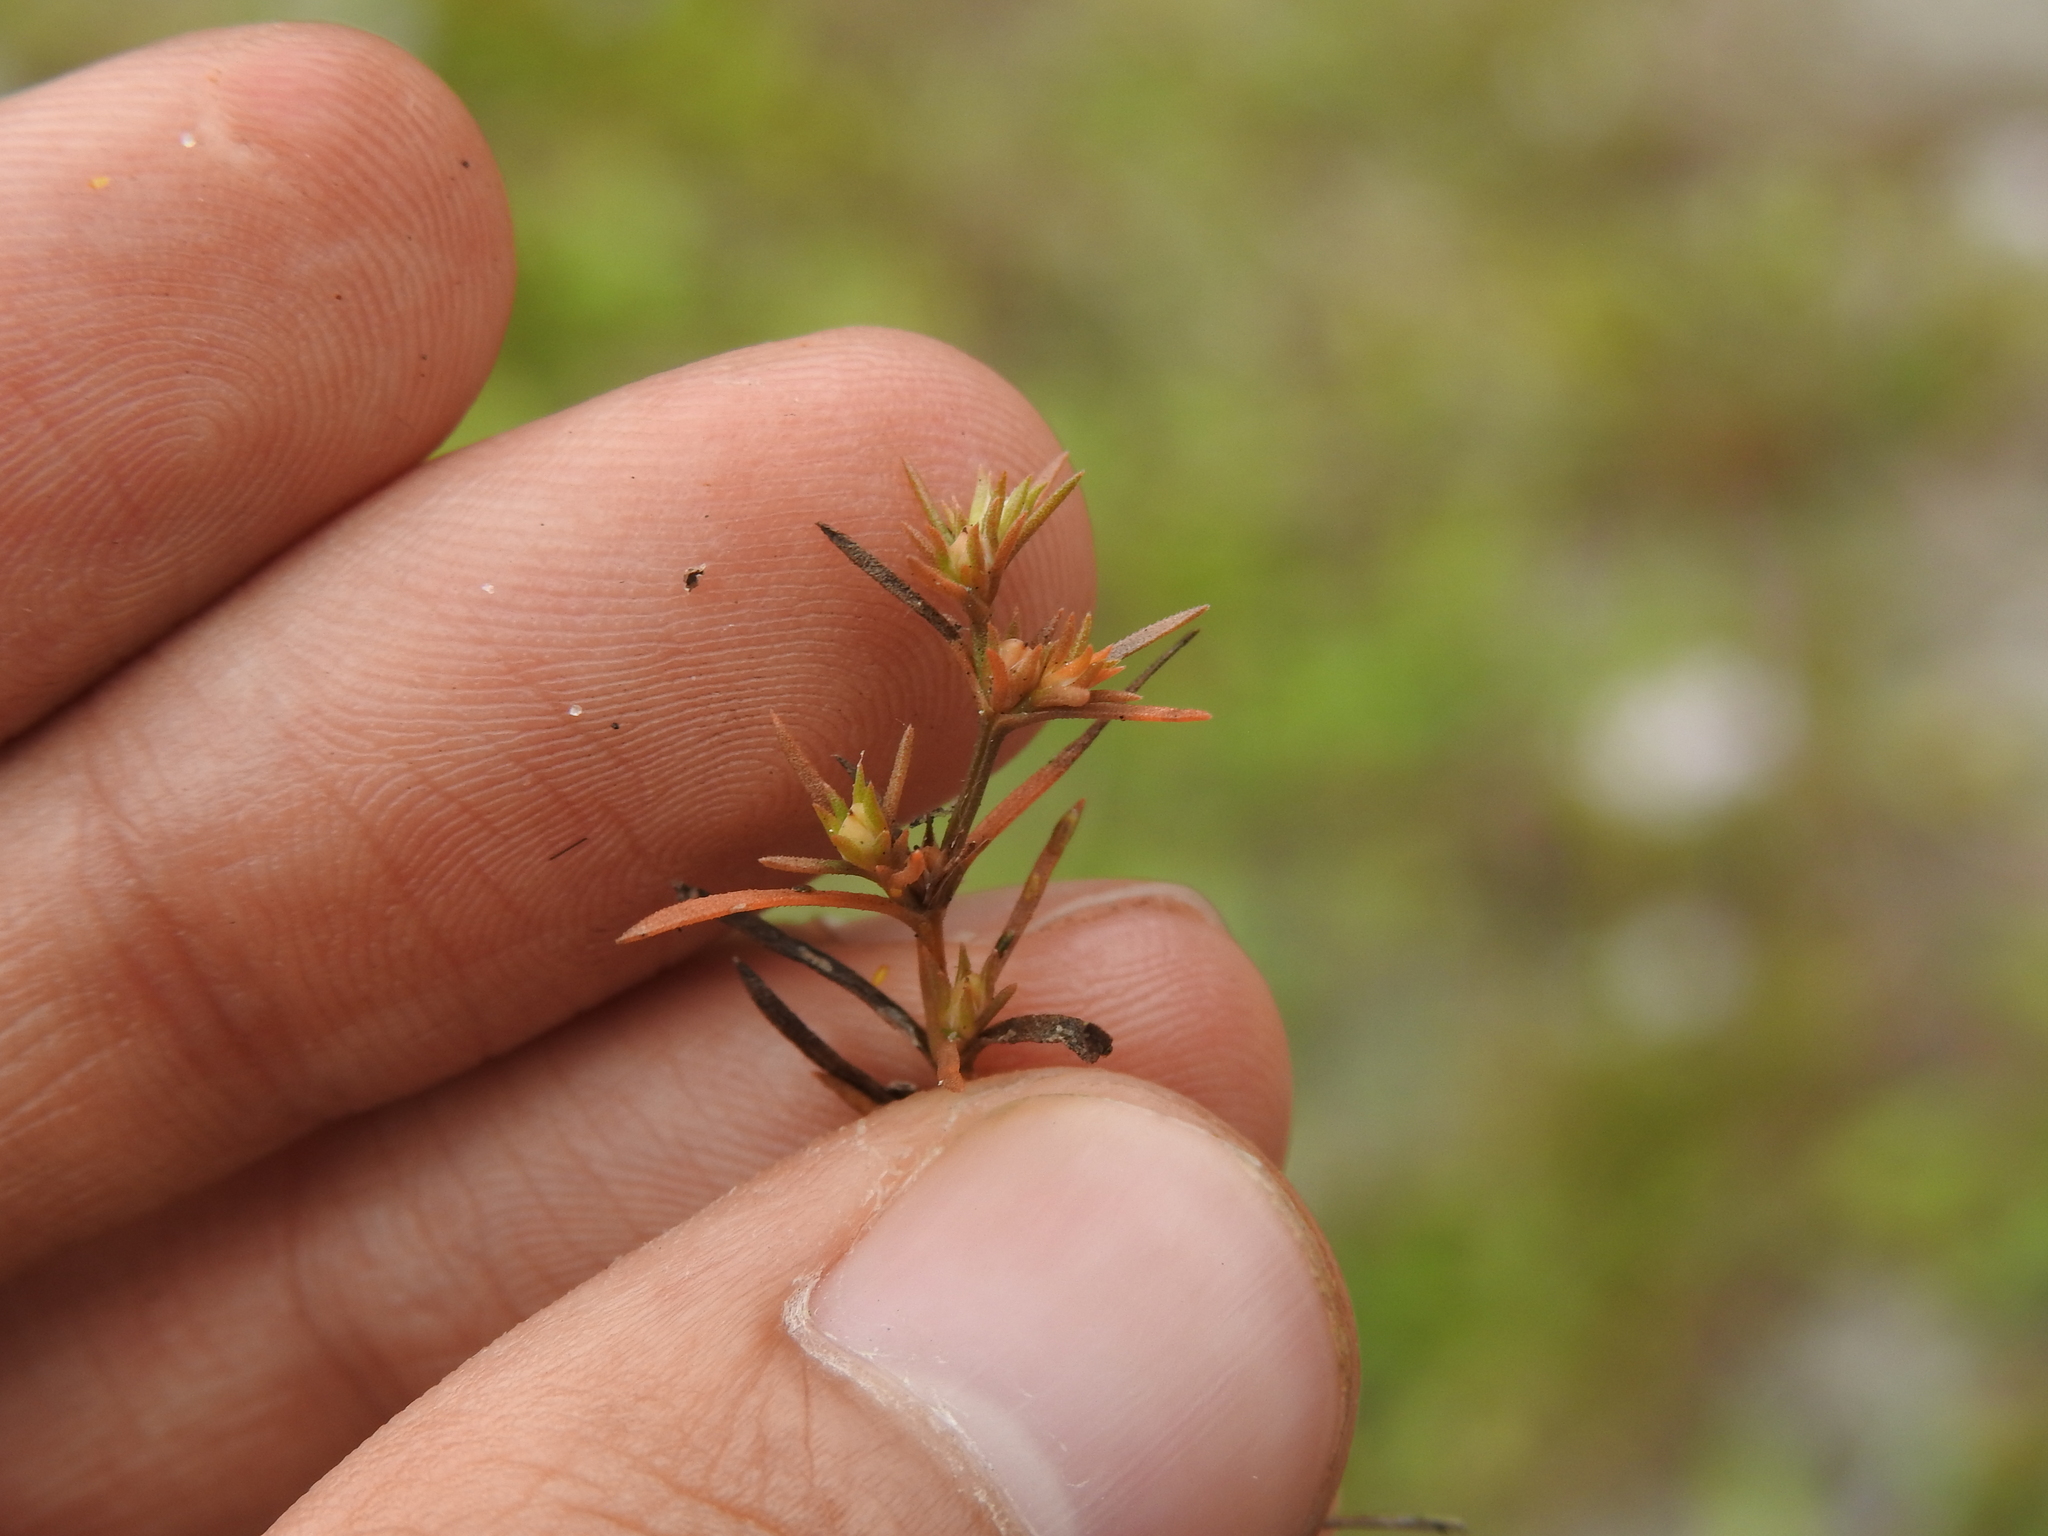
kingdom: Plantae
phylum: Tracheophyta
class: Magnoliopsida
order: Lamiales
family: Tetrachondraceae
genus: Polypremum
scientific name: Polypremum procumbens
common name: Juniper-leaf
